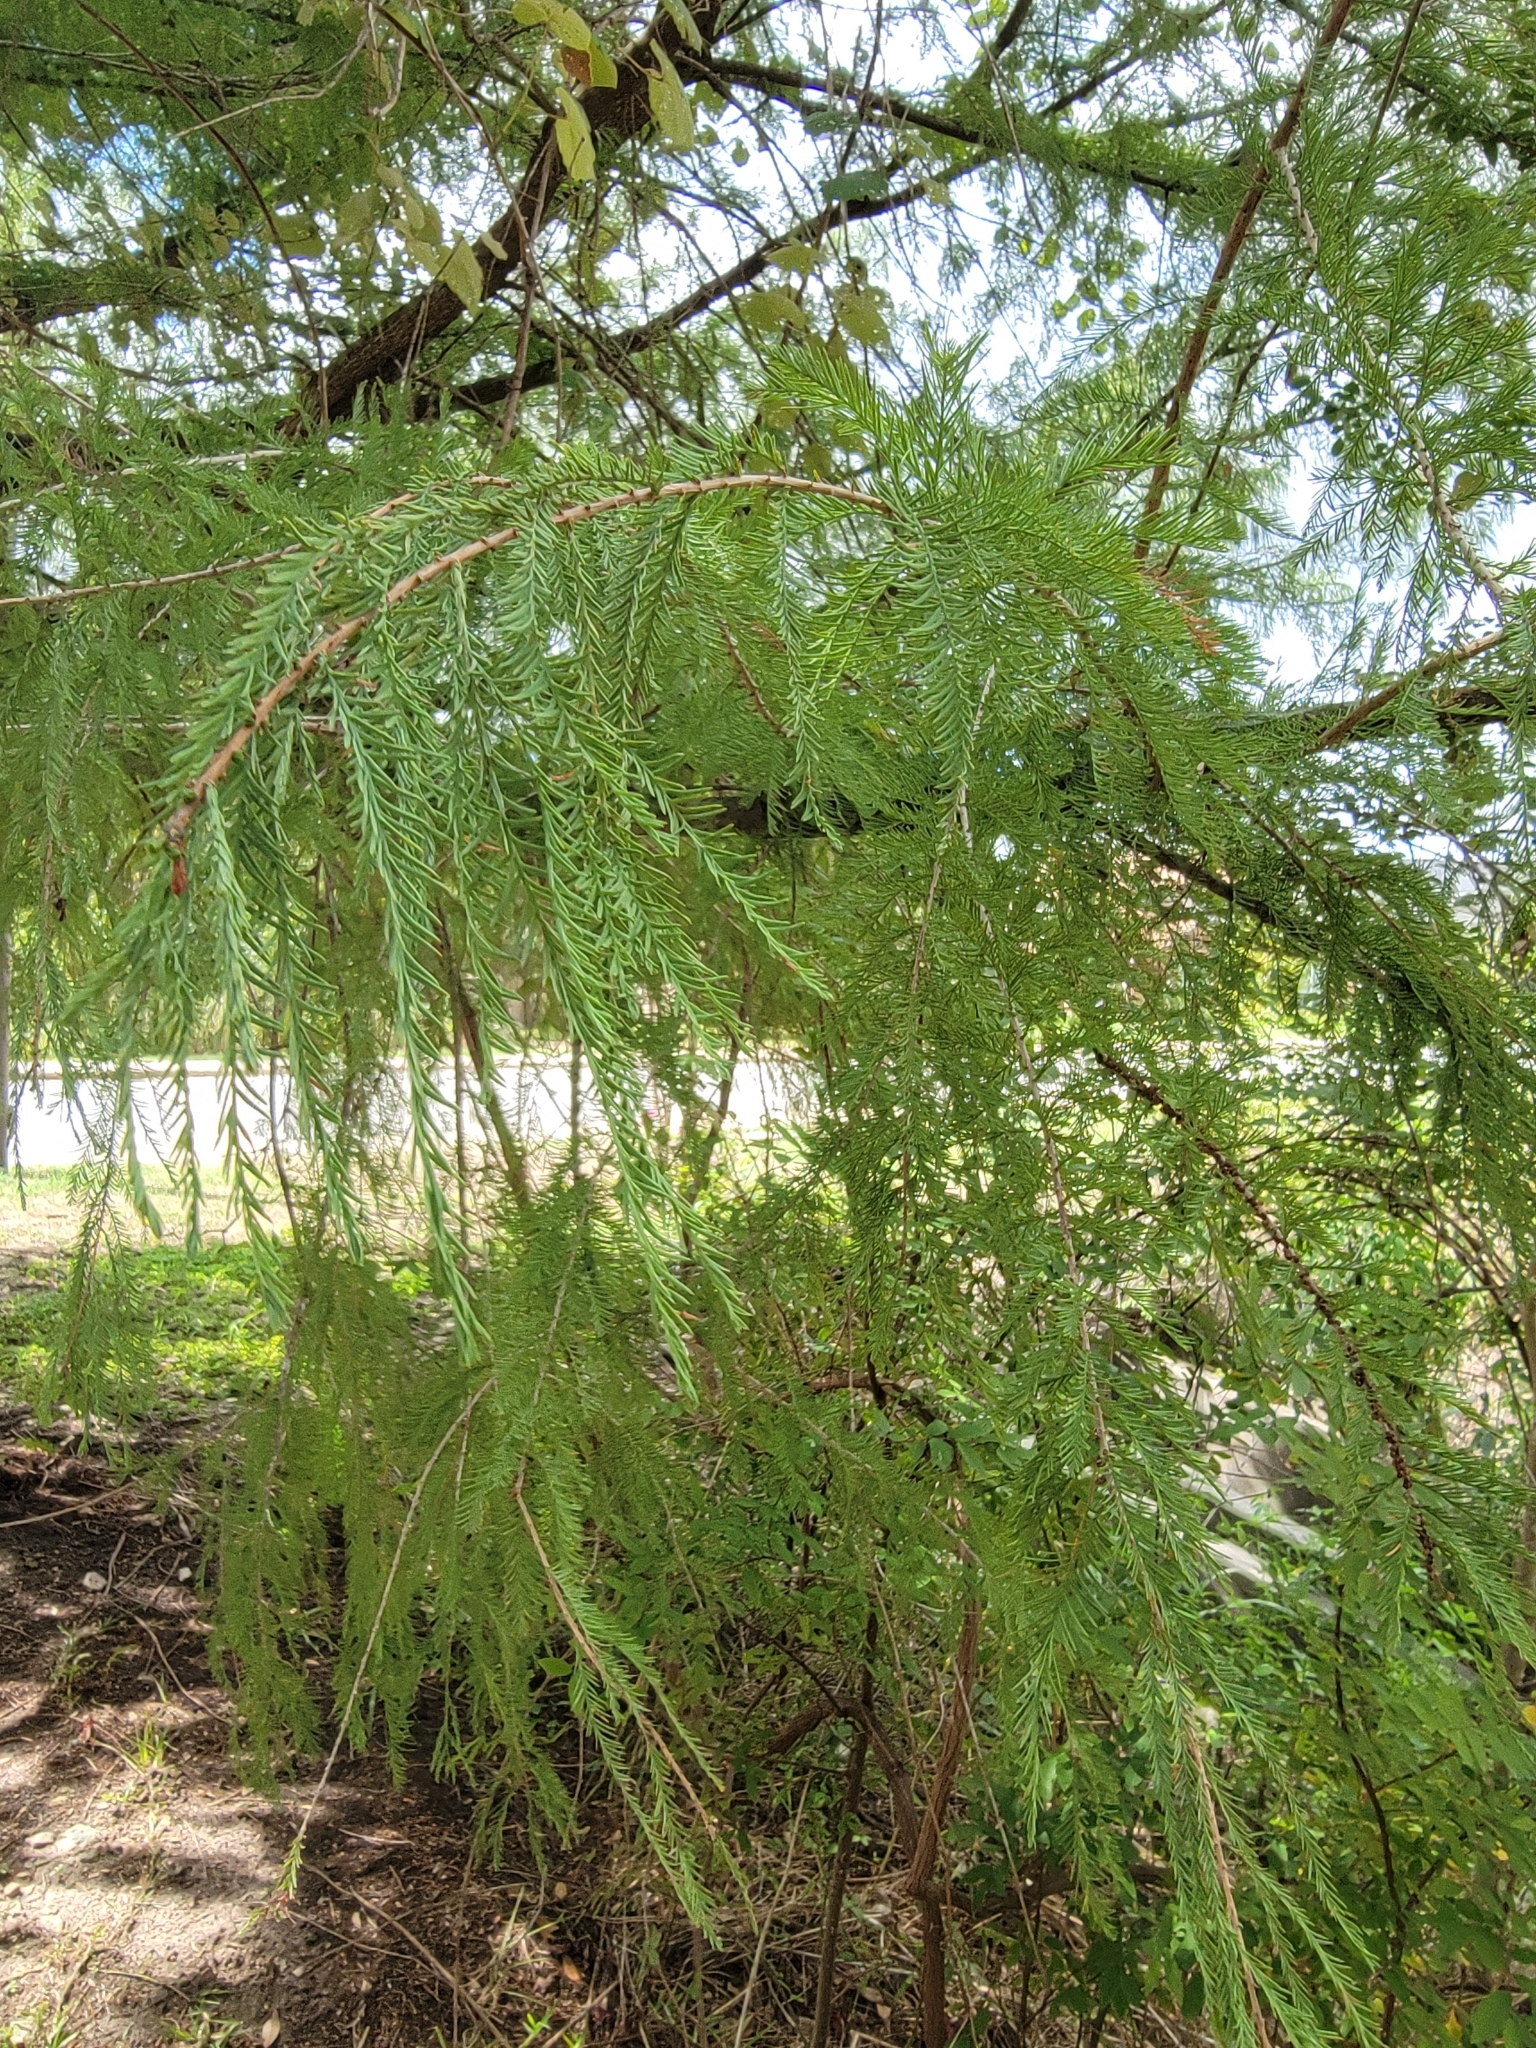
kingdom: Plantae
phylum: Tracheophyta
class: Pinopsida
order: Pinales
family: Cupressaceae
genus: Taxodium
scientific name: Taxodium distichum
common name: Bald cypress
